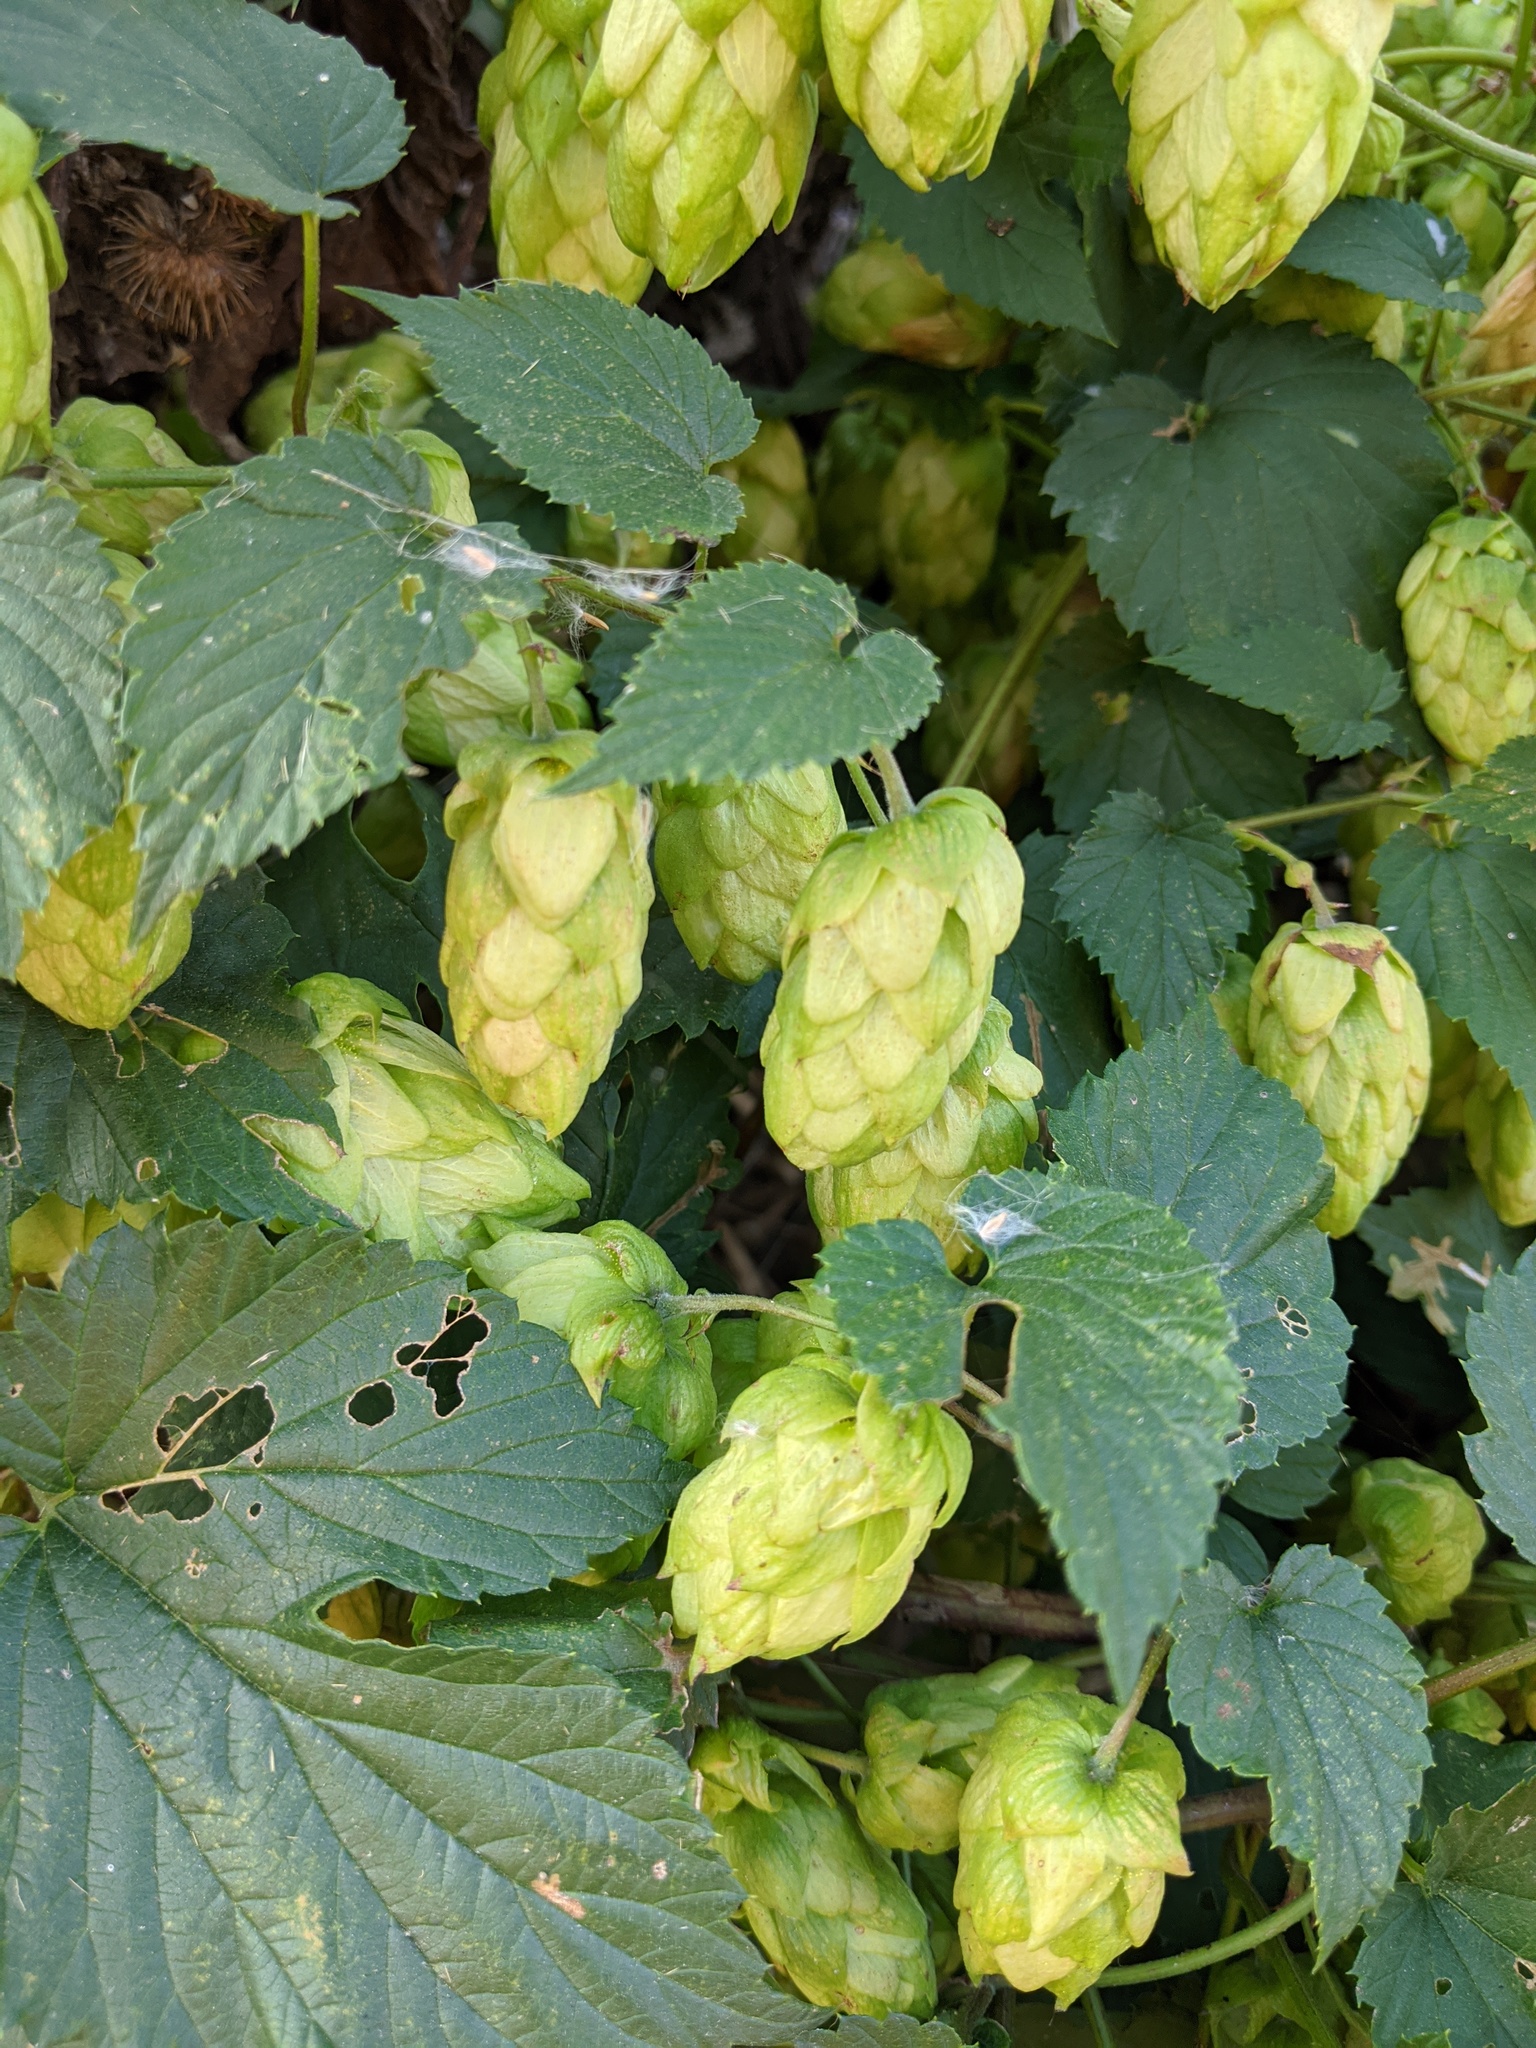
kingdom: Plantae
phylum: Tracheophyta
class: Magnoliopsida
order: Rosales
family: Cannabaceae
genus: Humulus
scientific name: Humulus lupulus
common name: Hop
